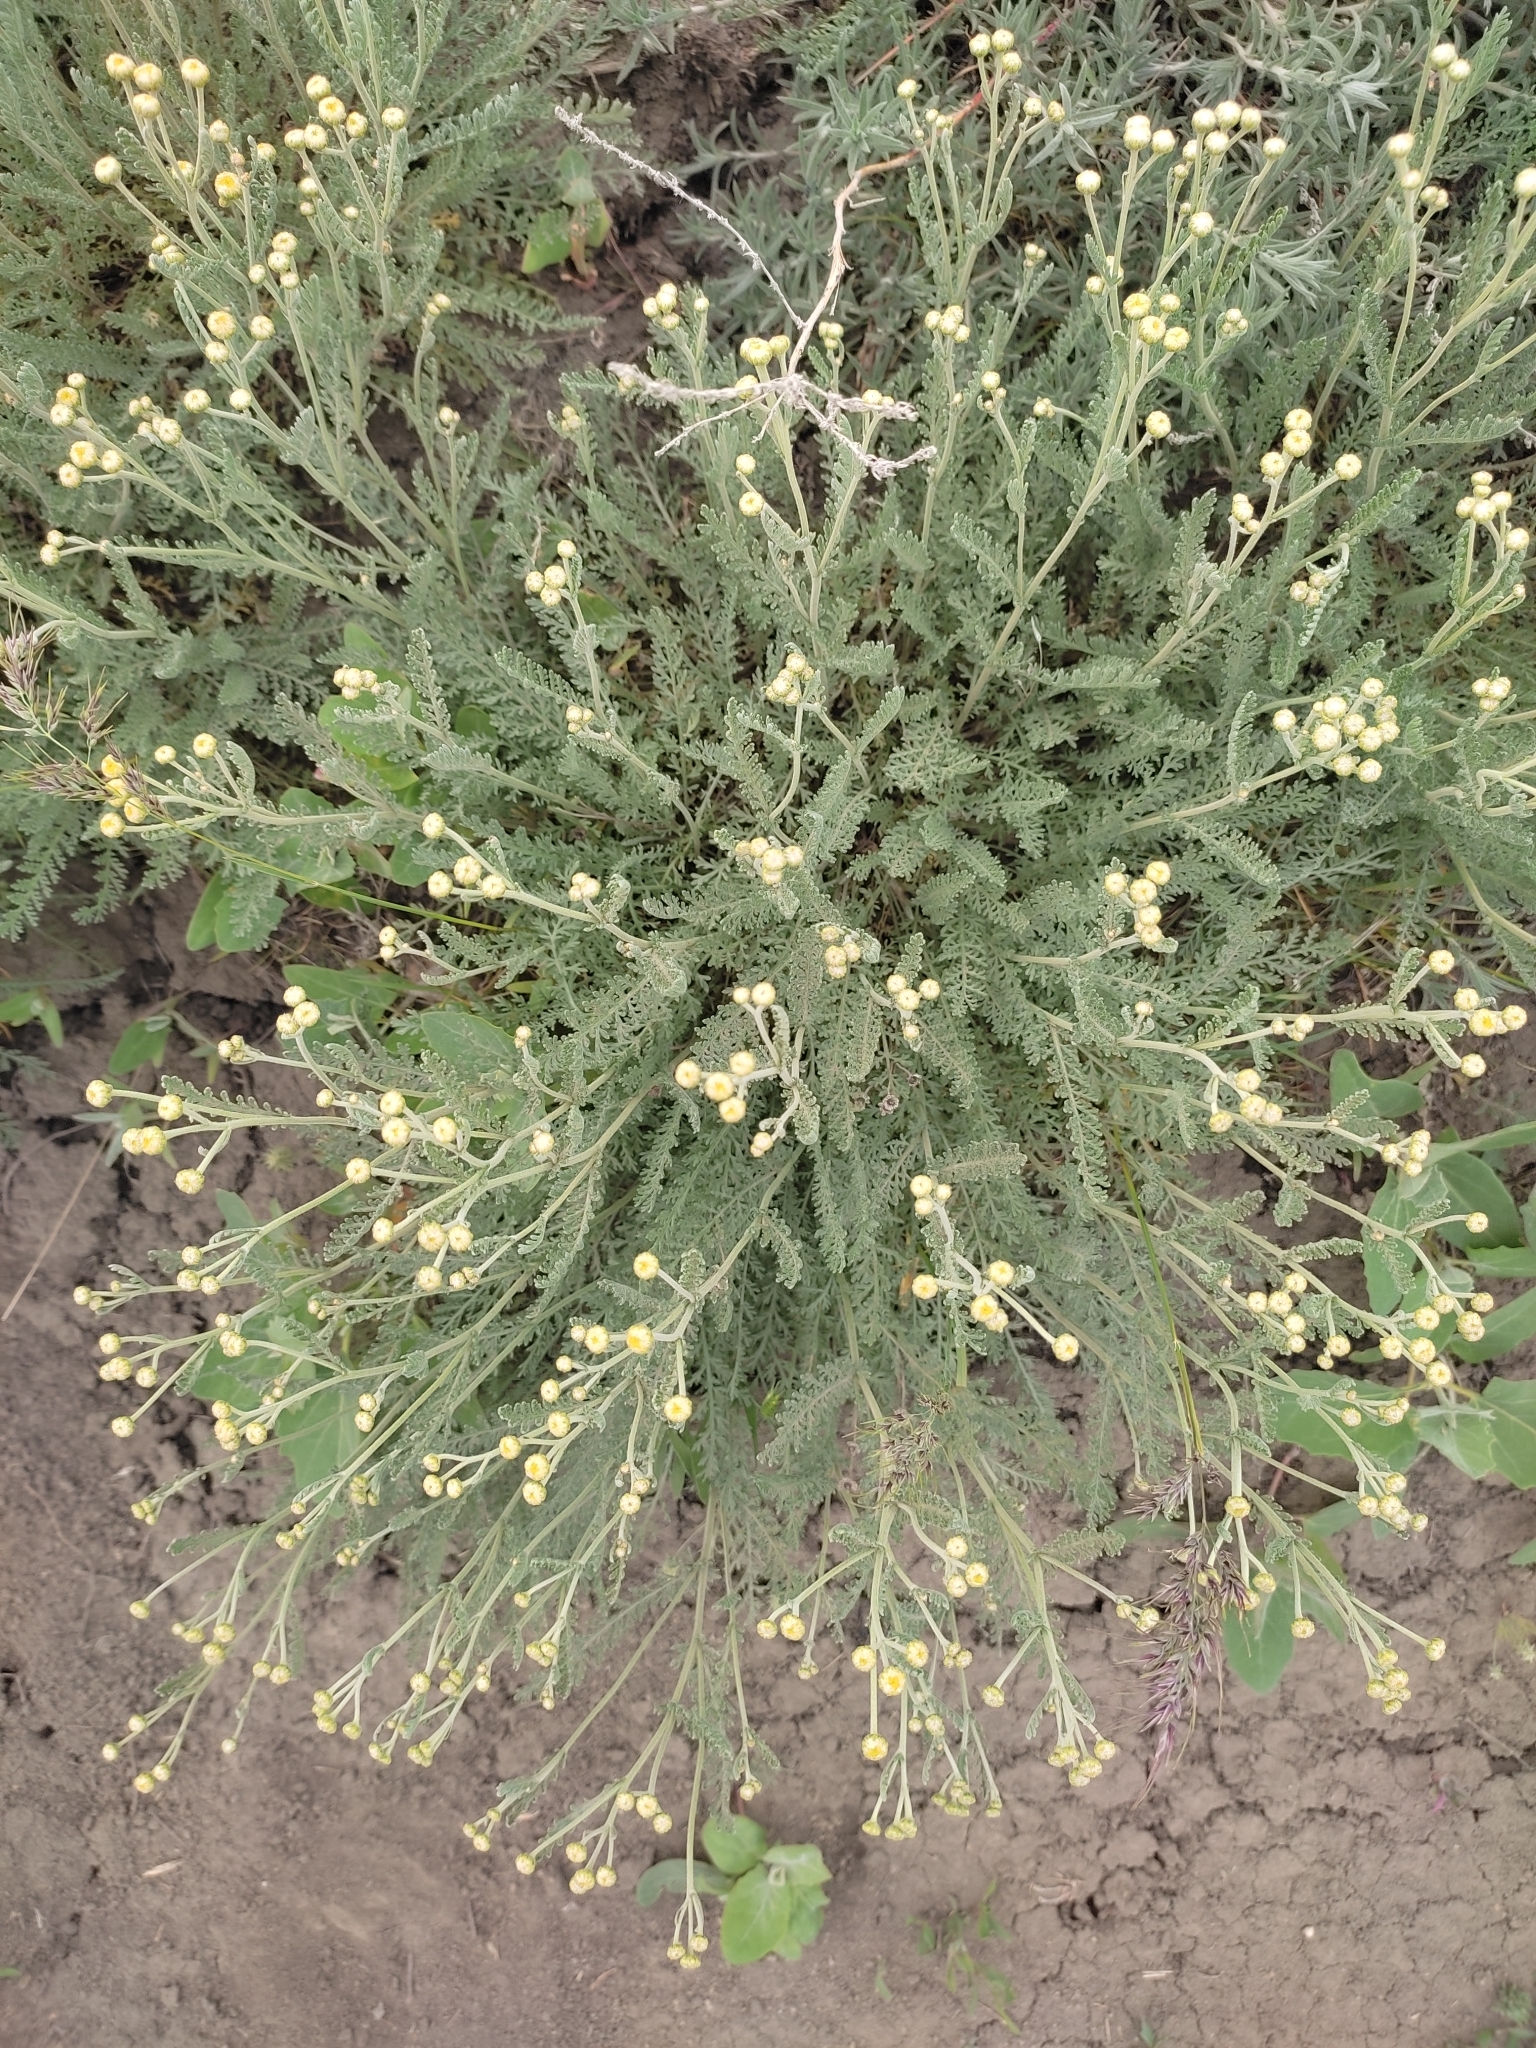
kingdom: Plantae
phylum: Tracheophyta
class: Magnoliopsida
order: Asterales
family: Asteraceae
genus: Tanacetum
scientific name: Tanacetum achilleifolium
